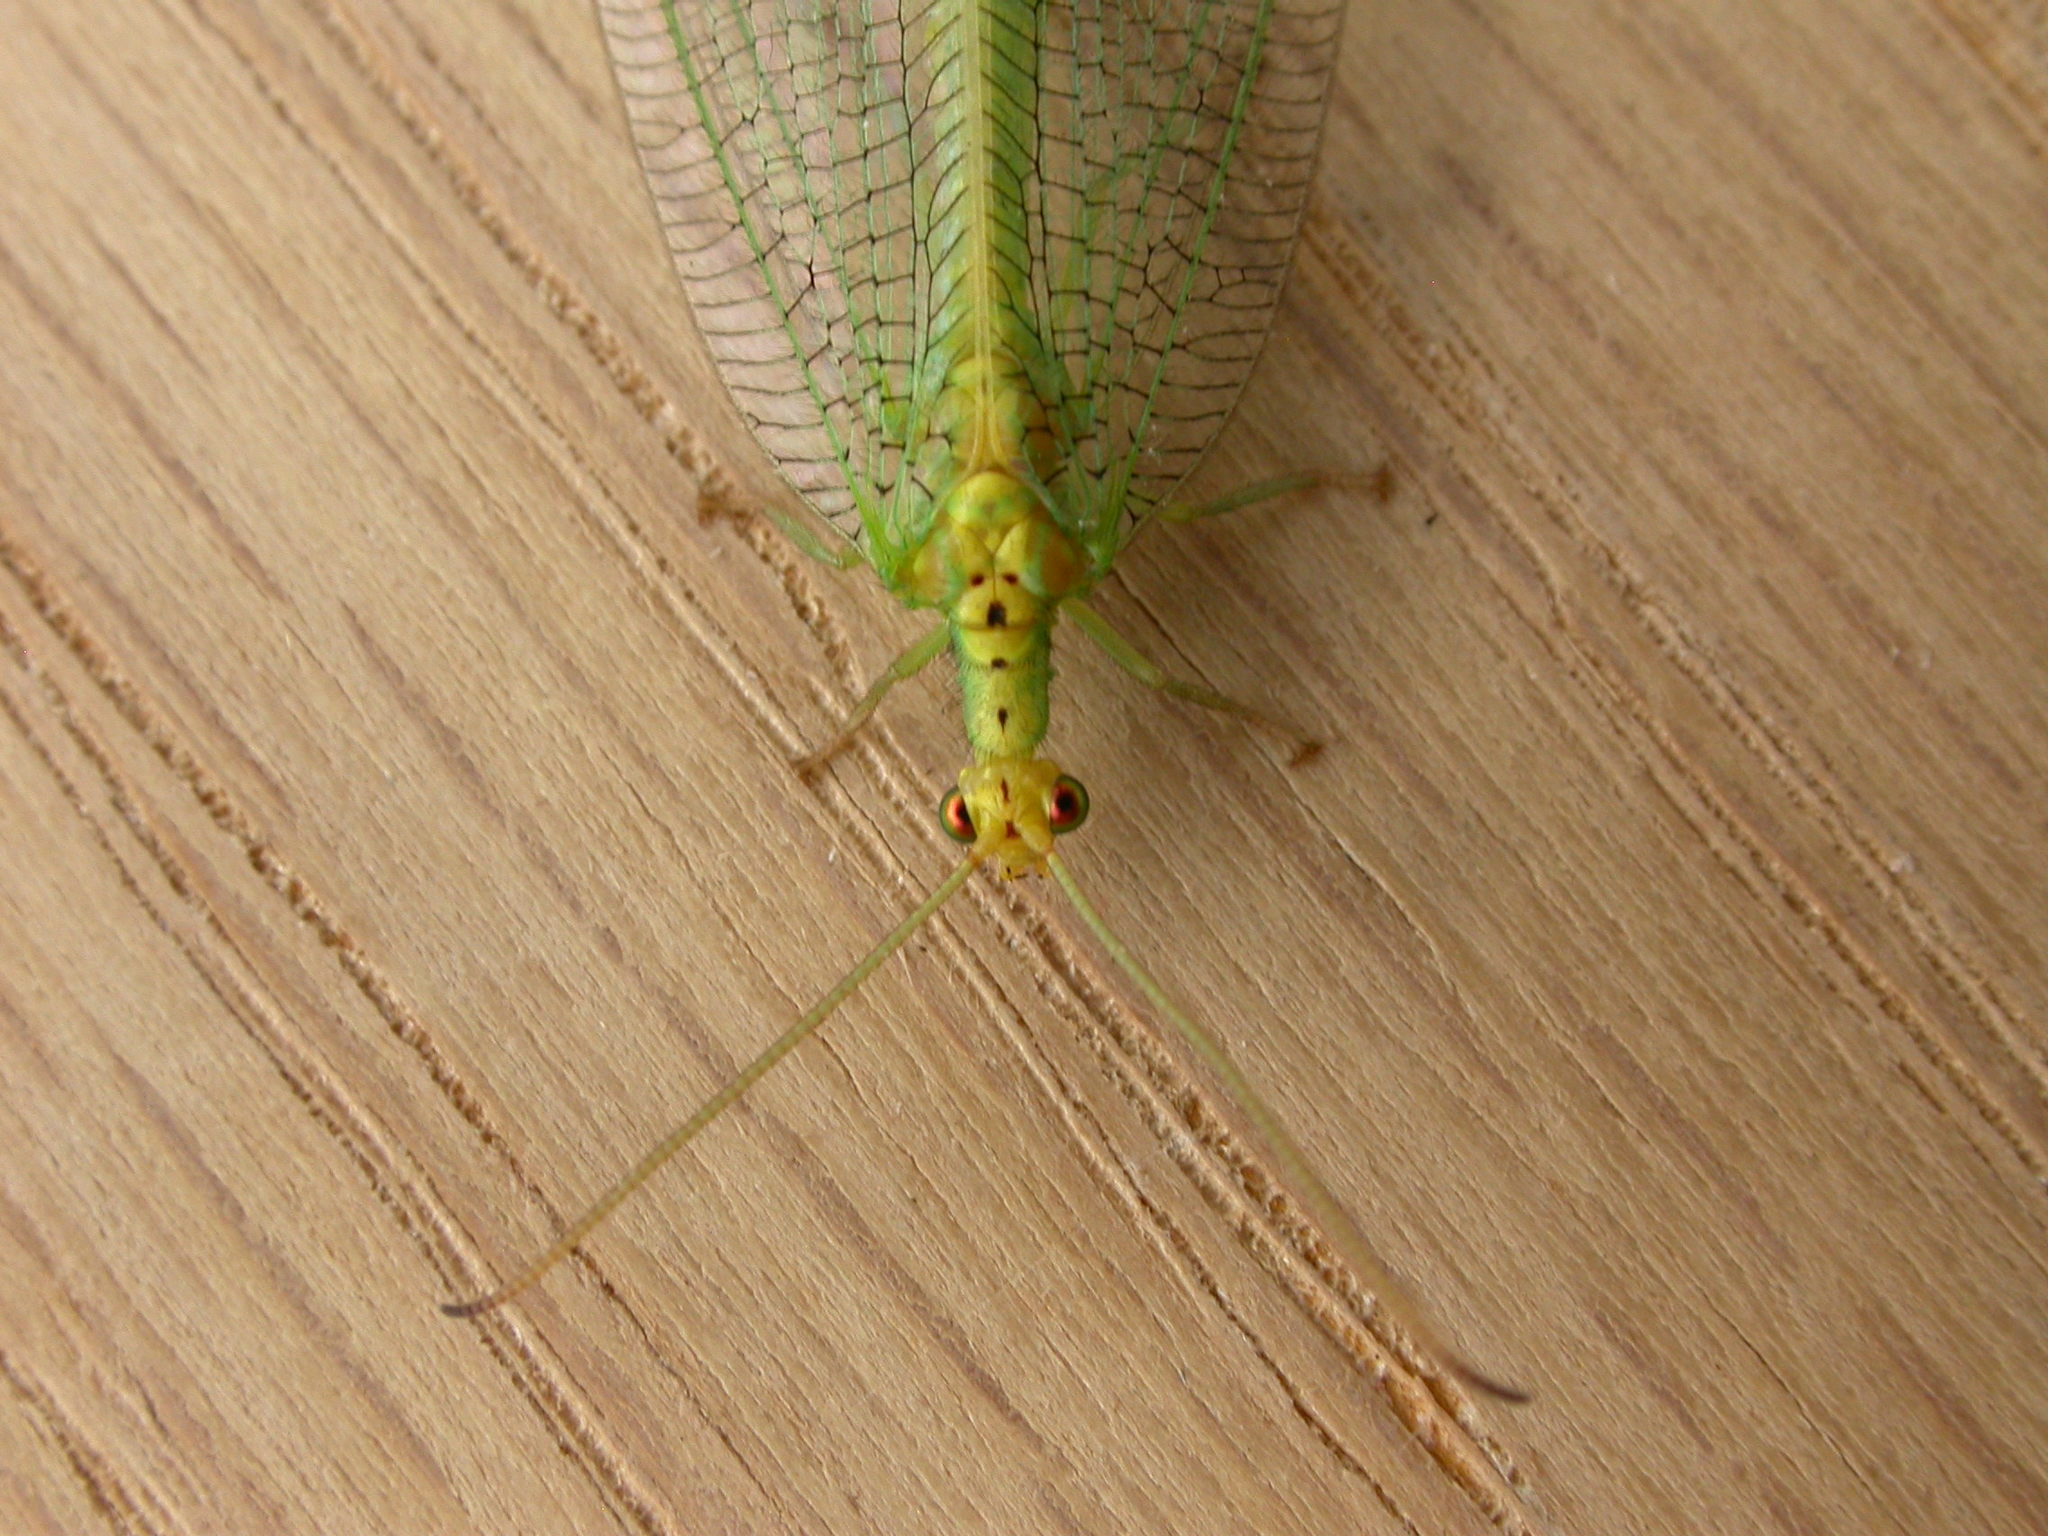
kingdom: Animalia
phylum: Arthropoda
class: Insecta
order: Neuroptera
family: Nymphidae
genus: Osmylops
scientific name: Osmylops sejunctus
